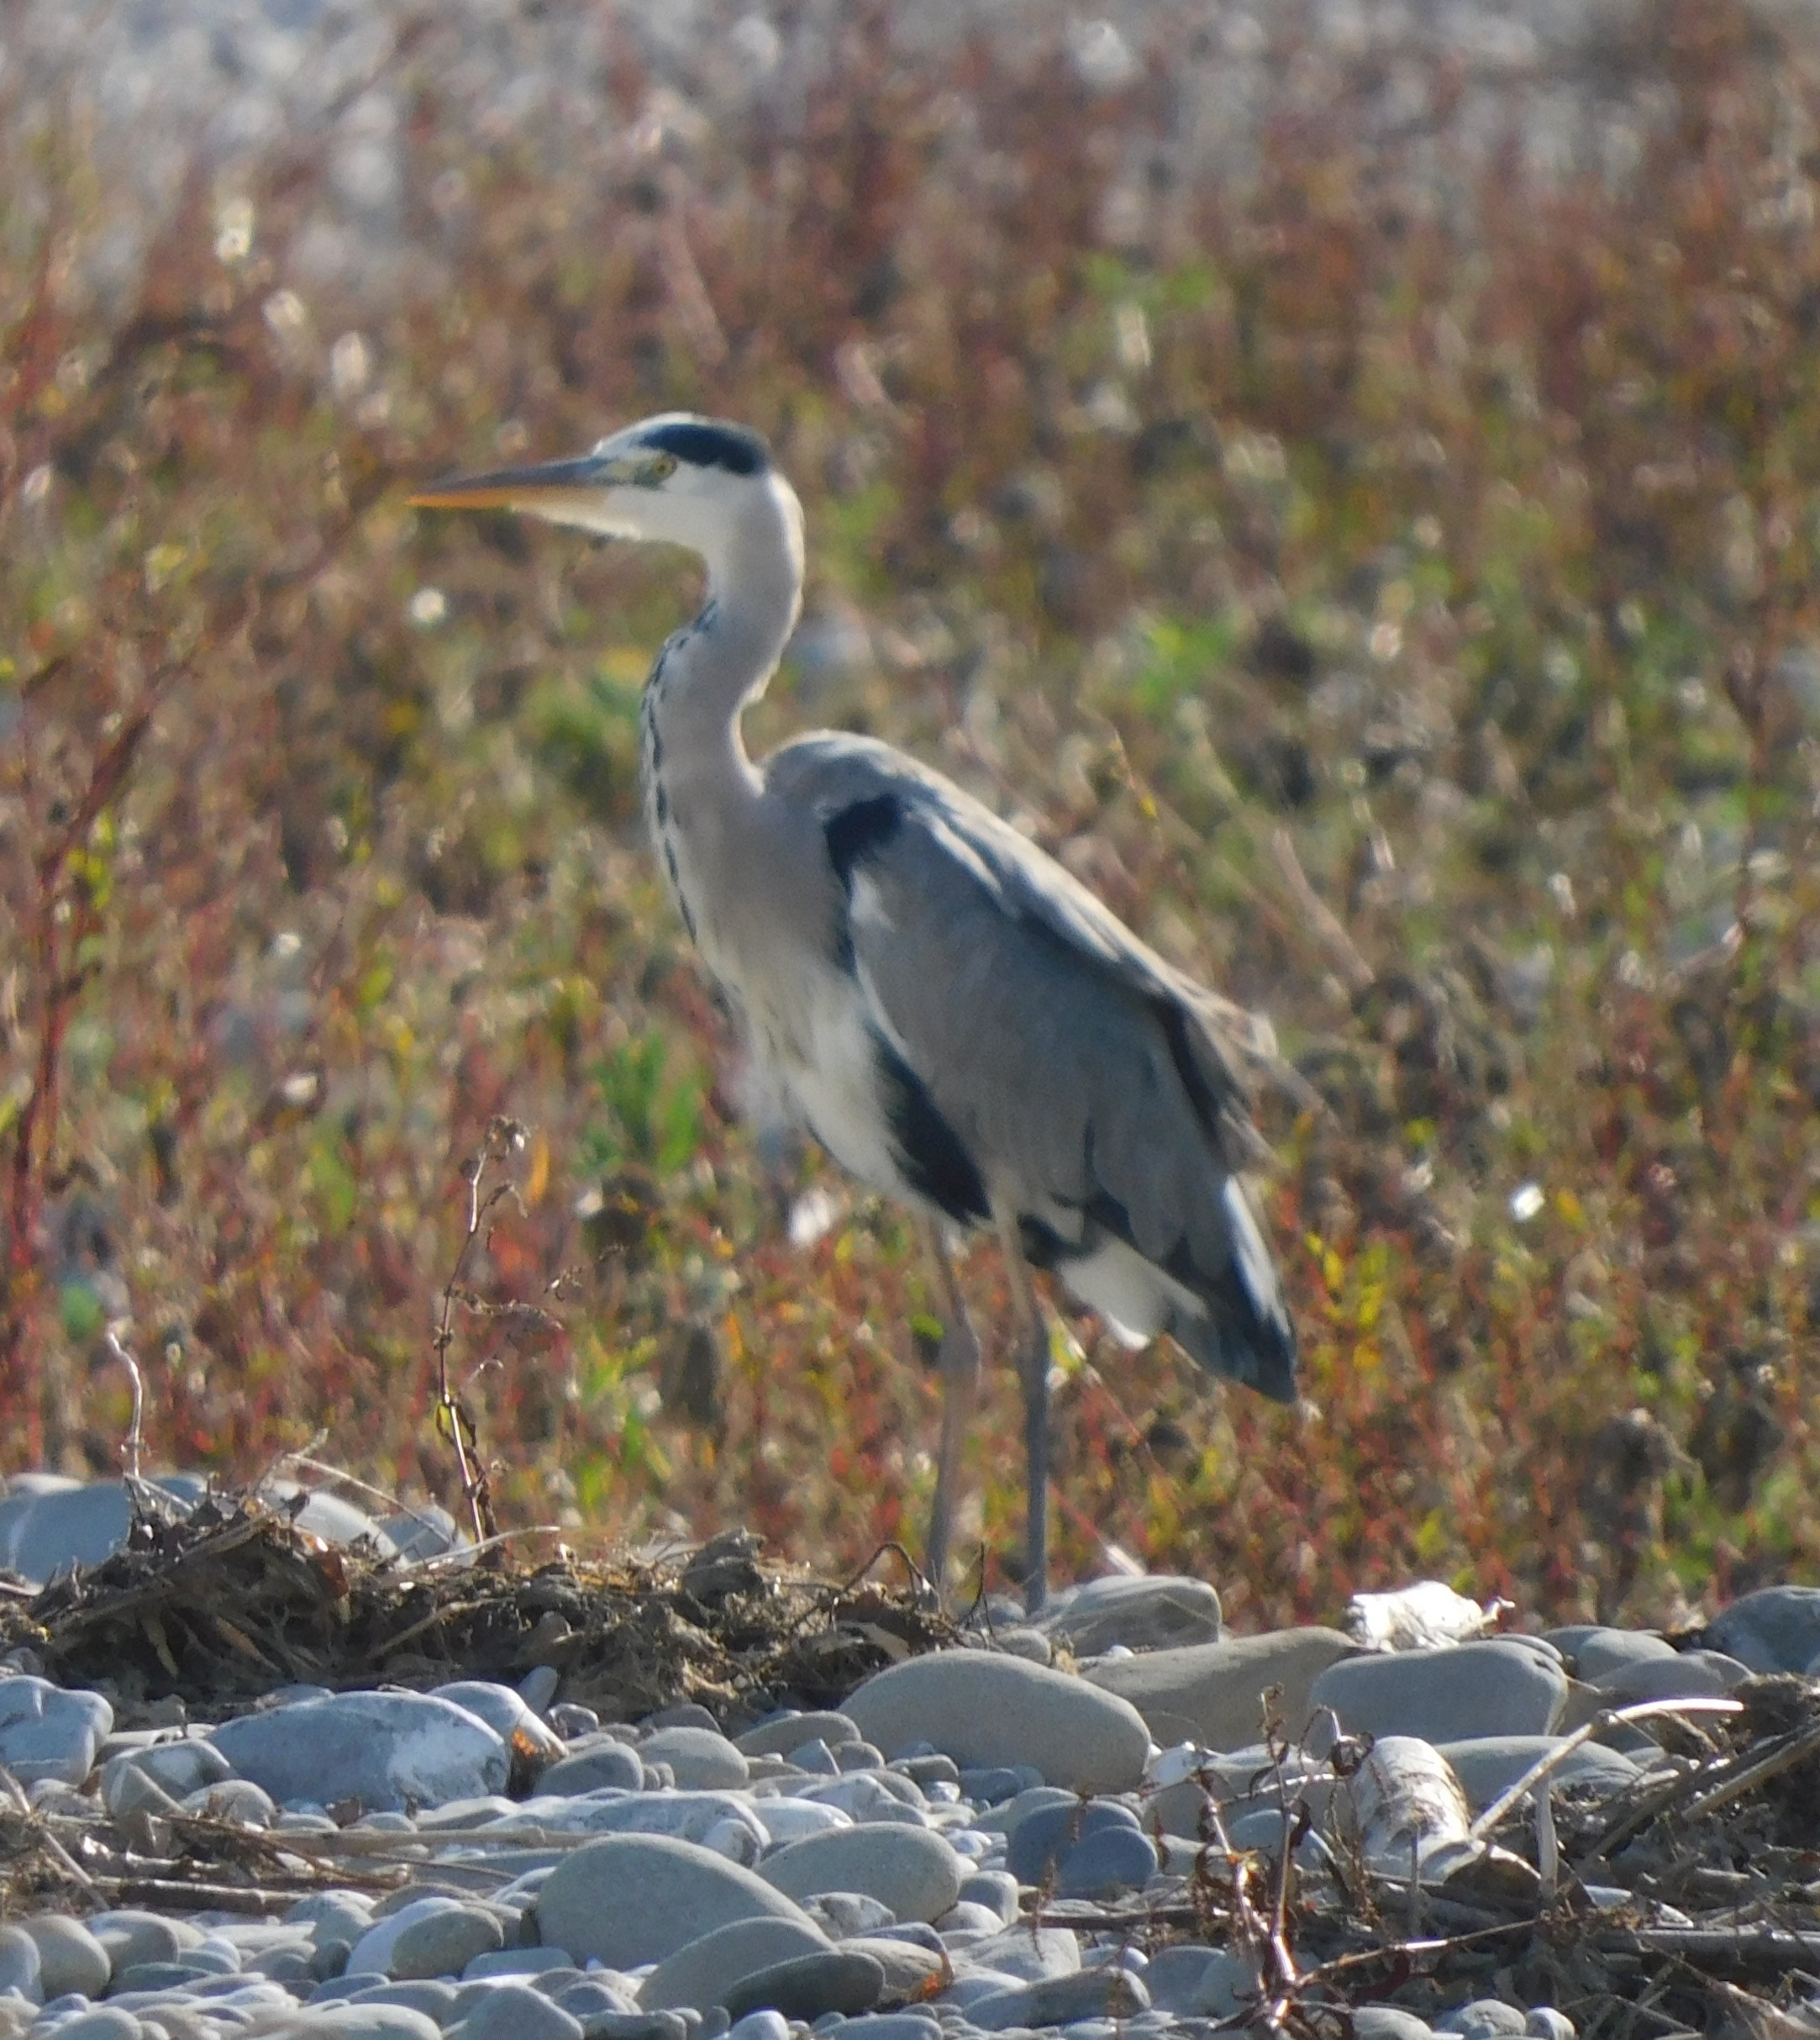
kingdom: Animalia
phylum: Chordata
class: Aves
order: Pelecaniformes
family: Ardeidae
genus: Ardea
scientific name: Ardea cinerea
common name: Grey heron
